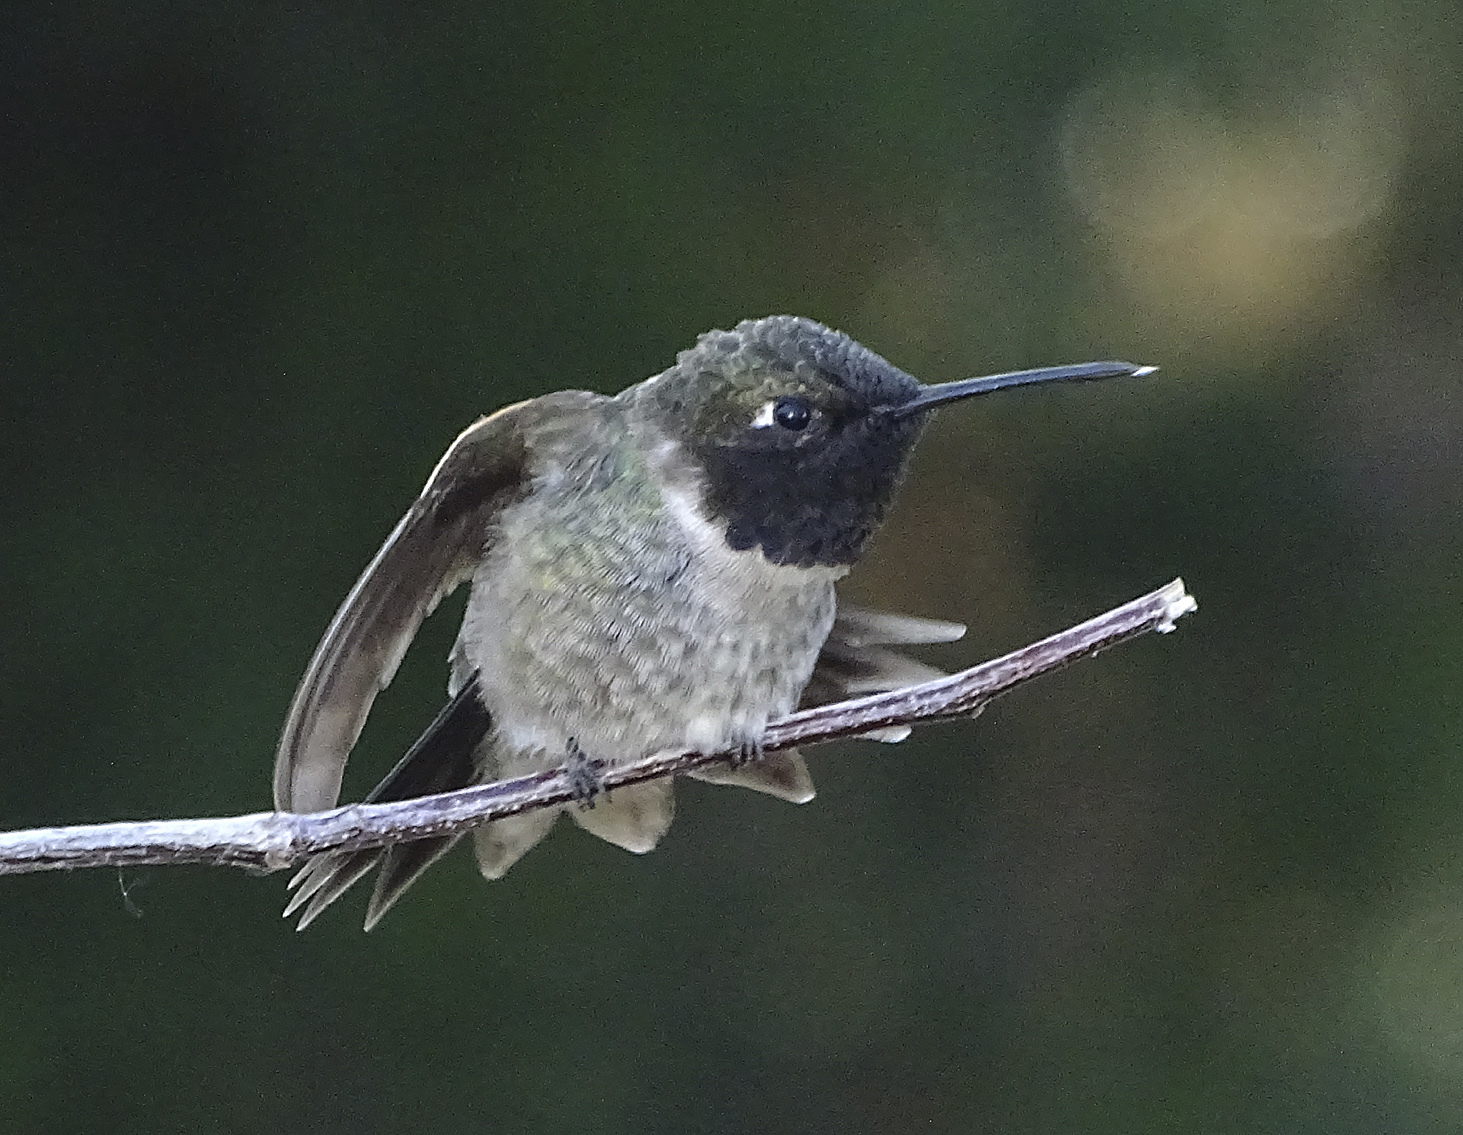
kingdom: Animalia
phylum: Chordata
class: Aves
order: Apodiformes
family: Trochilidae
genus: Archilochus
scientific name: Archilochus alexandri
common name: Black-chinned hummingbird
